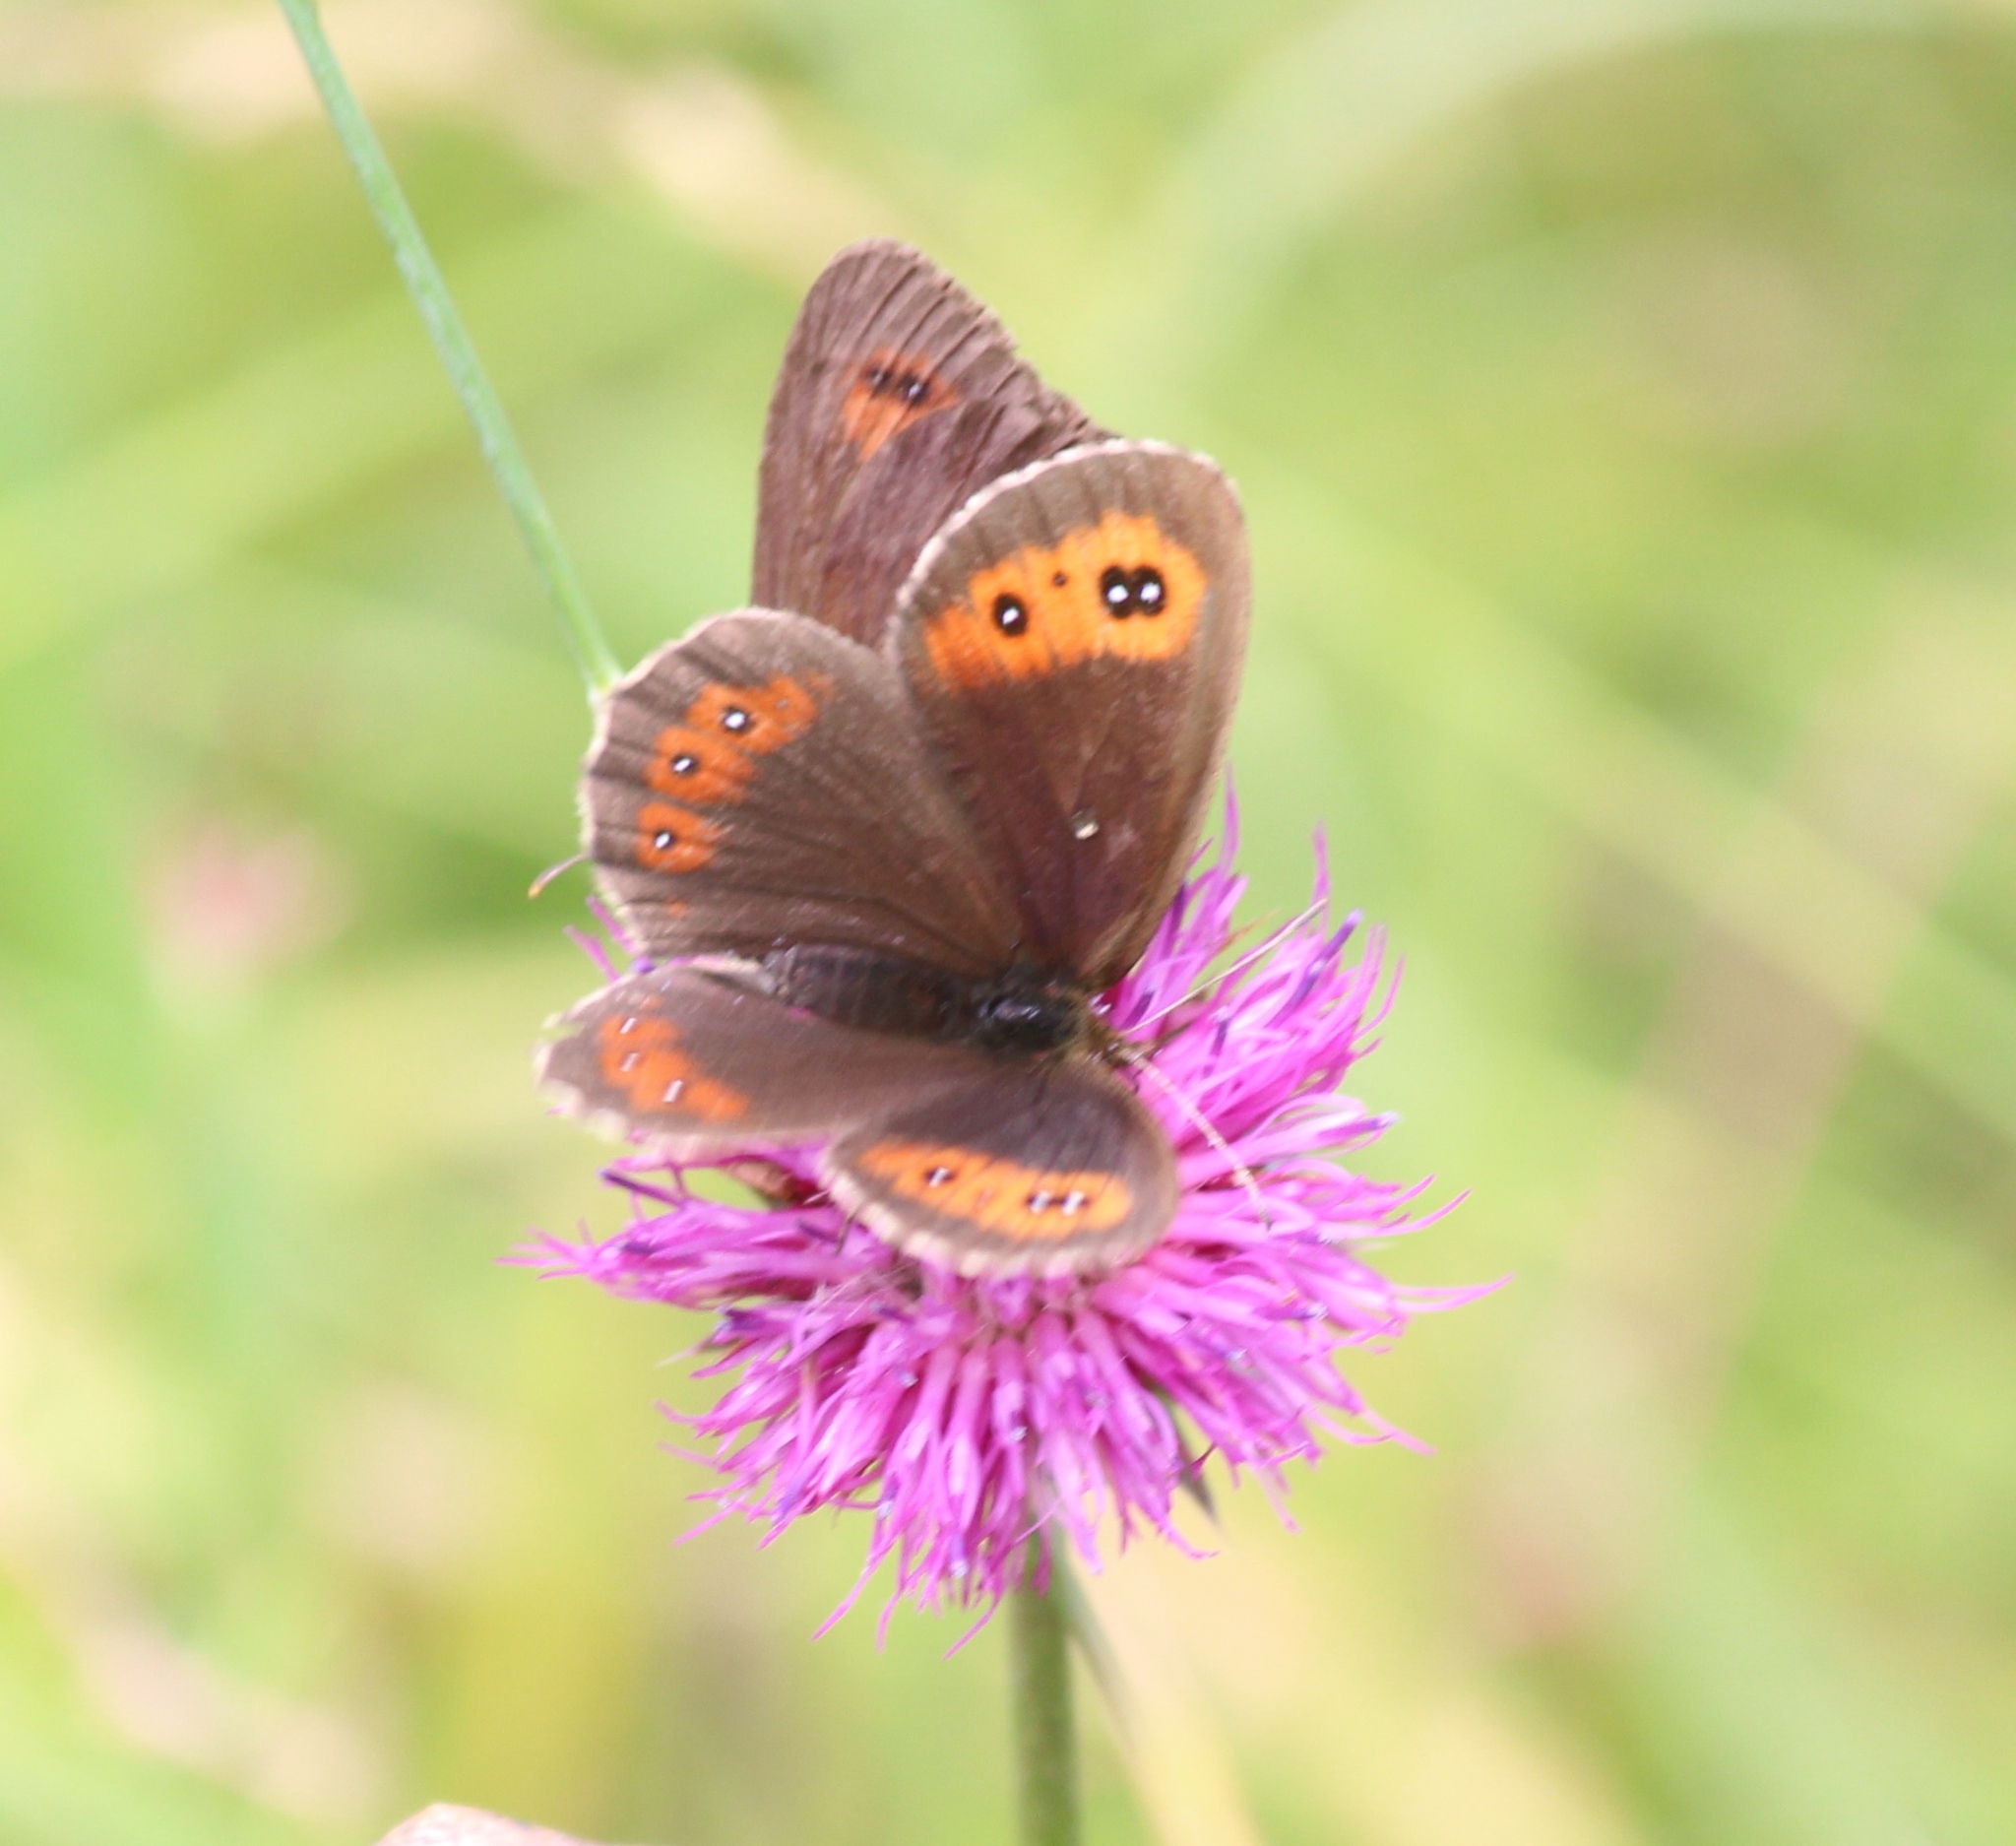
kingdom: Animalia
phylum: Arthropoda
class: Insecta
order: Lepidoptera
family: Nymphalidae
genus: Erebia
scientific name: Erebia aethiops
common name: Scotch argus
